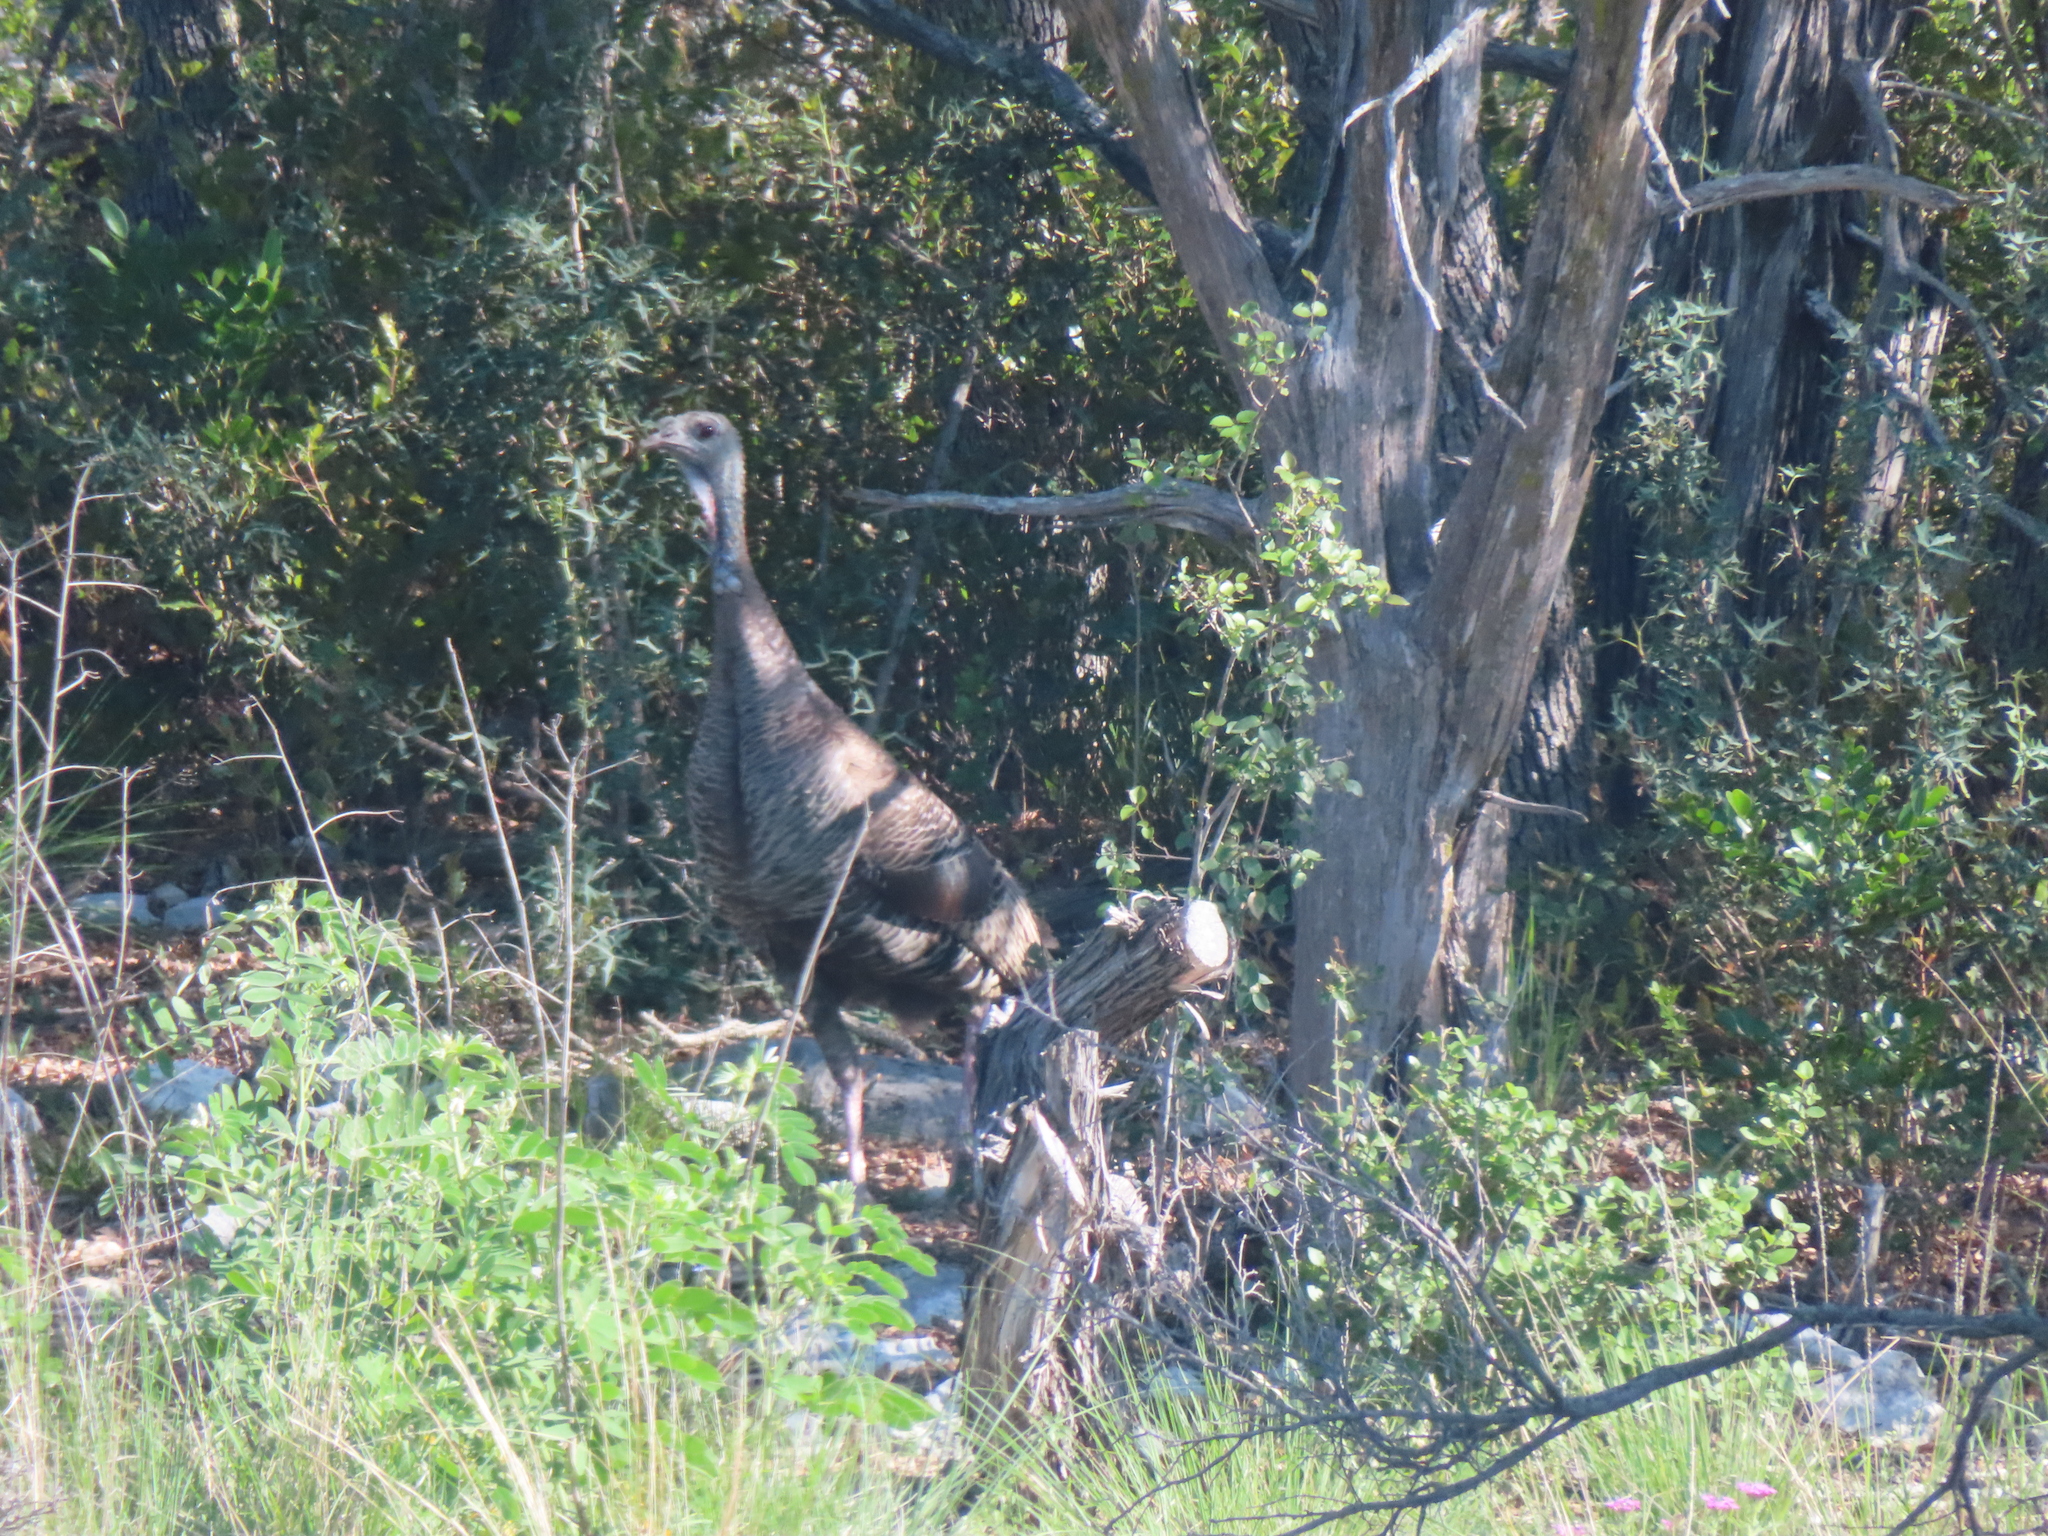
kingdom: Animalia
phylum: Chordata
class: Aves
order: Galliformes
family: Phasianidae
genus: Meleagris
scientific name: Meleagris gallopavo
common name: Wild turkey
